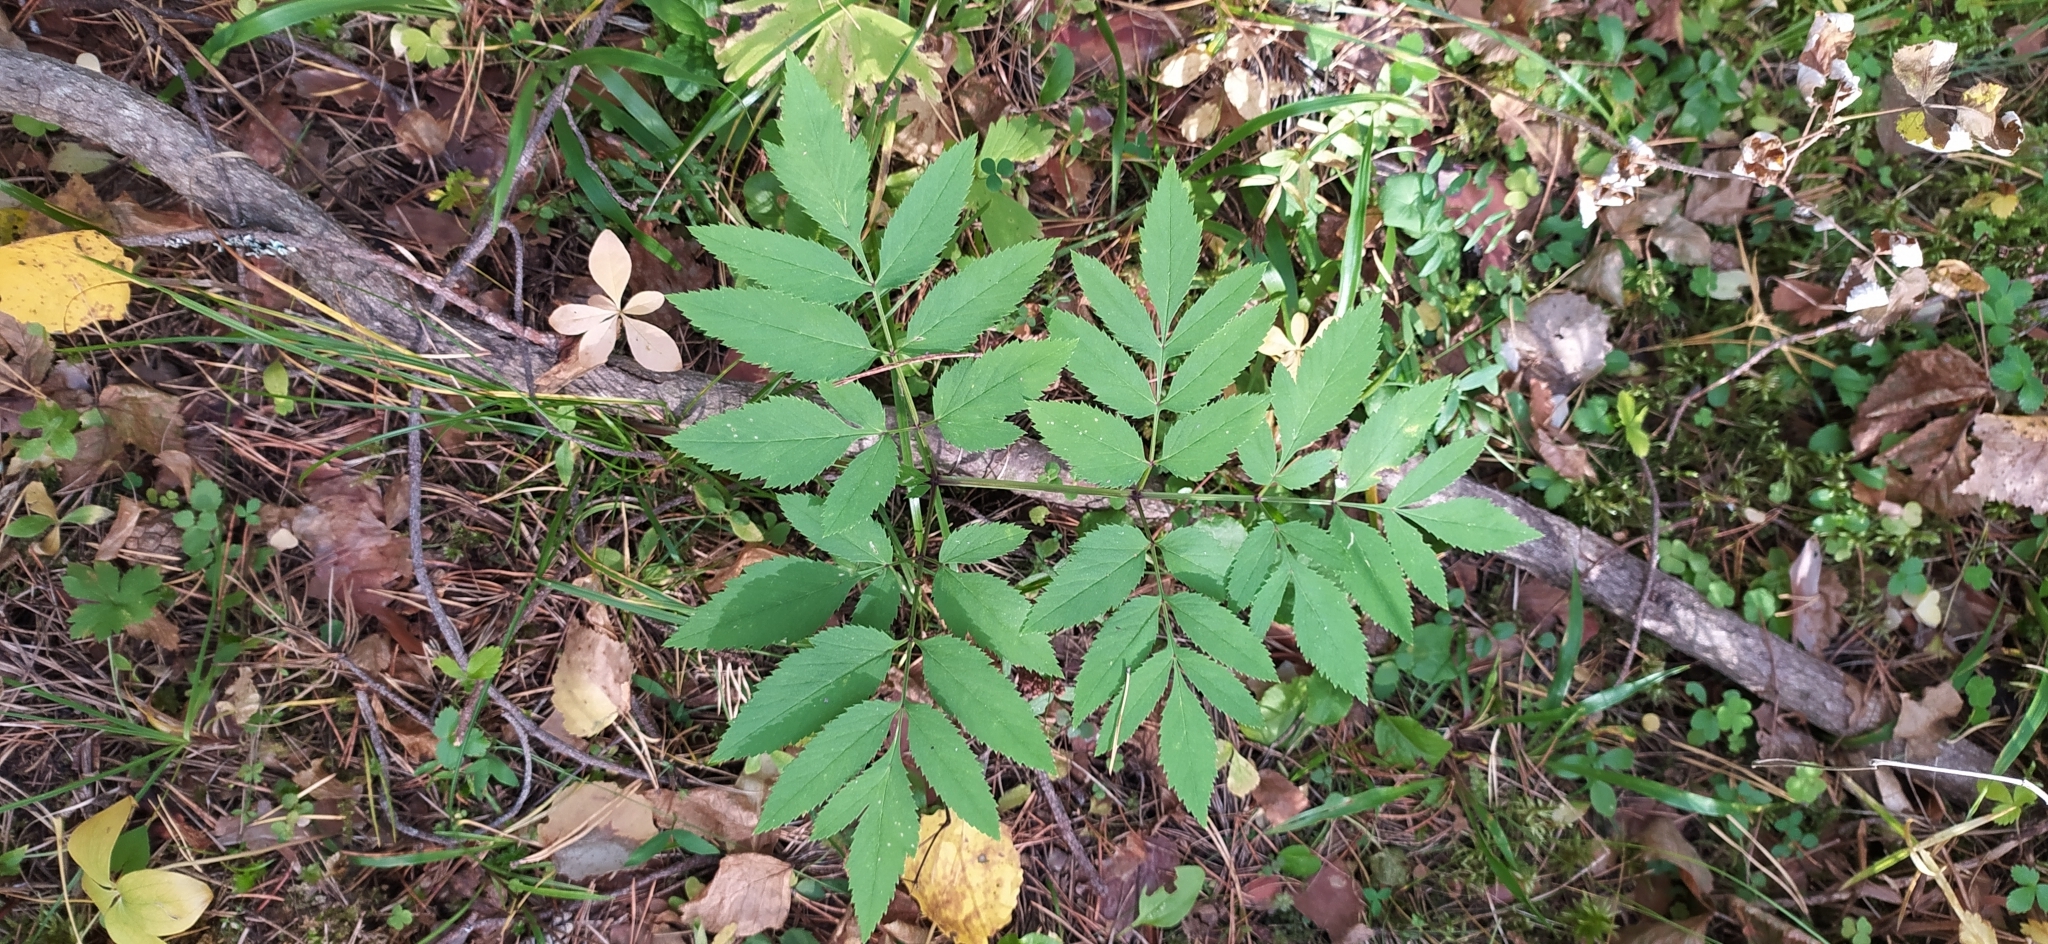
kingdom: Plantae
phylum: Tracheophyta
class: Magnoliopsida
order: Apiales
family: Apiaceae
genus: Angelica
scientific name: Angelica sylvestris
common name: Wild angelica
